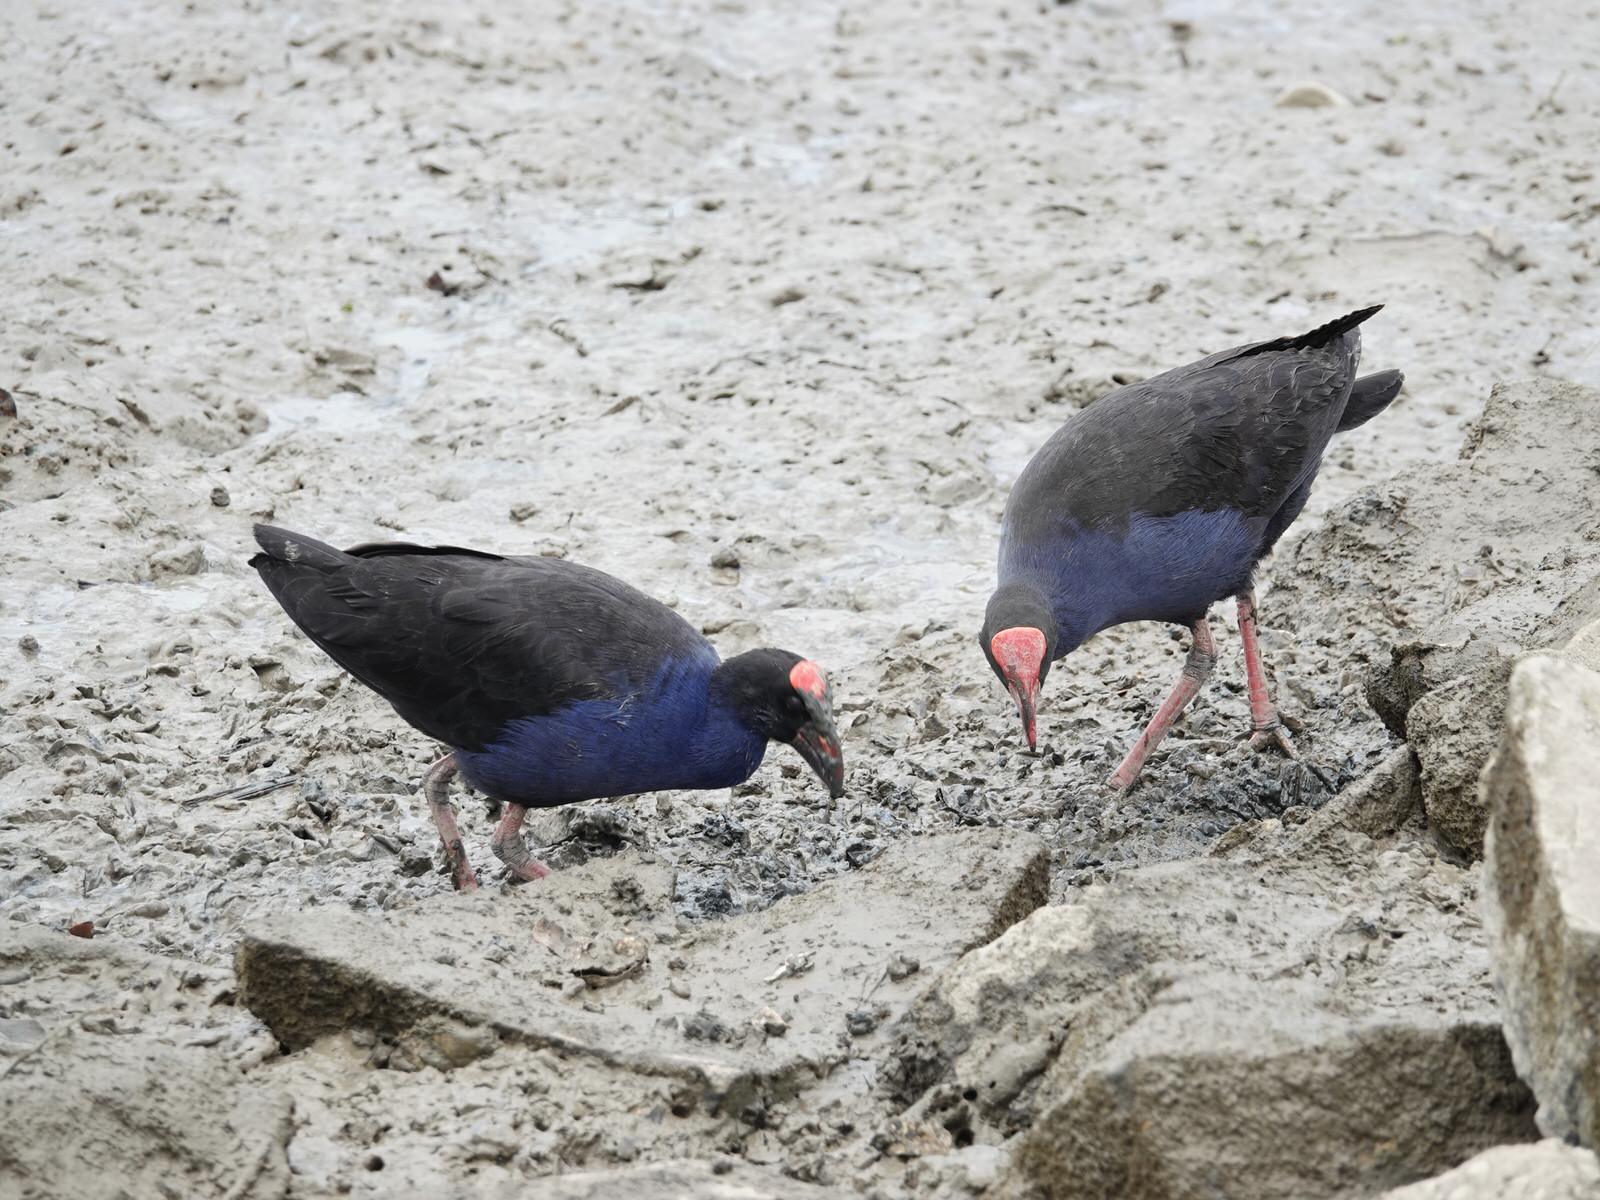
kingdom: Animalia
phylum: Chordata
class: Aves
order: Gruiformes
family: Rallidae
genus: Porphyrio
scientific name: Porphyrio melanotus
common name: Australasian swamphen
